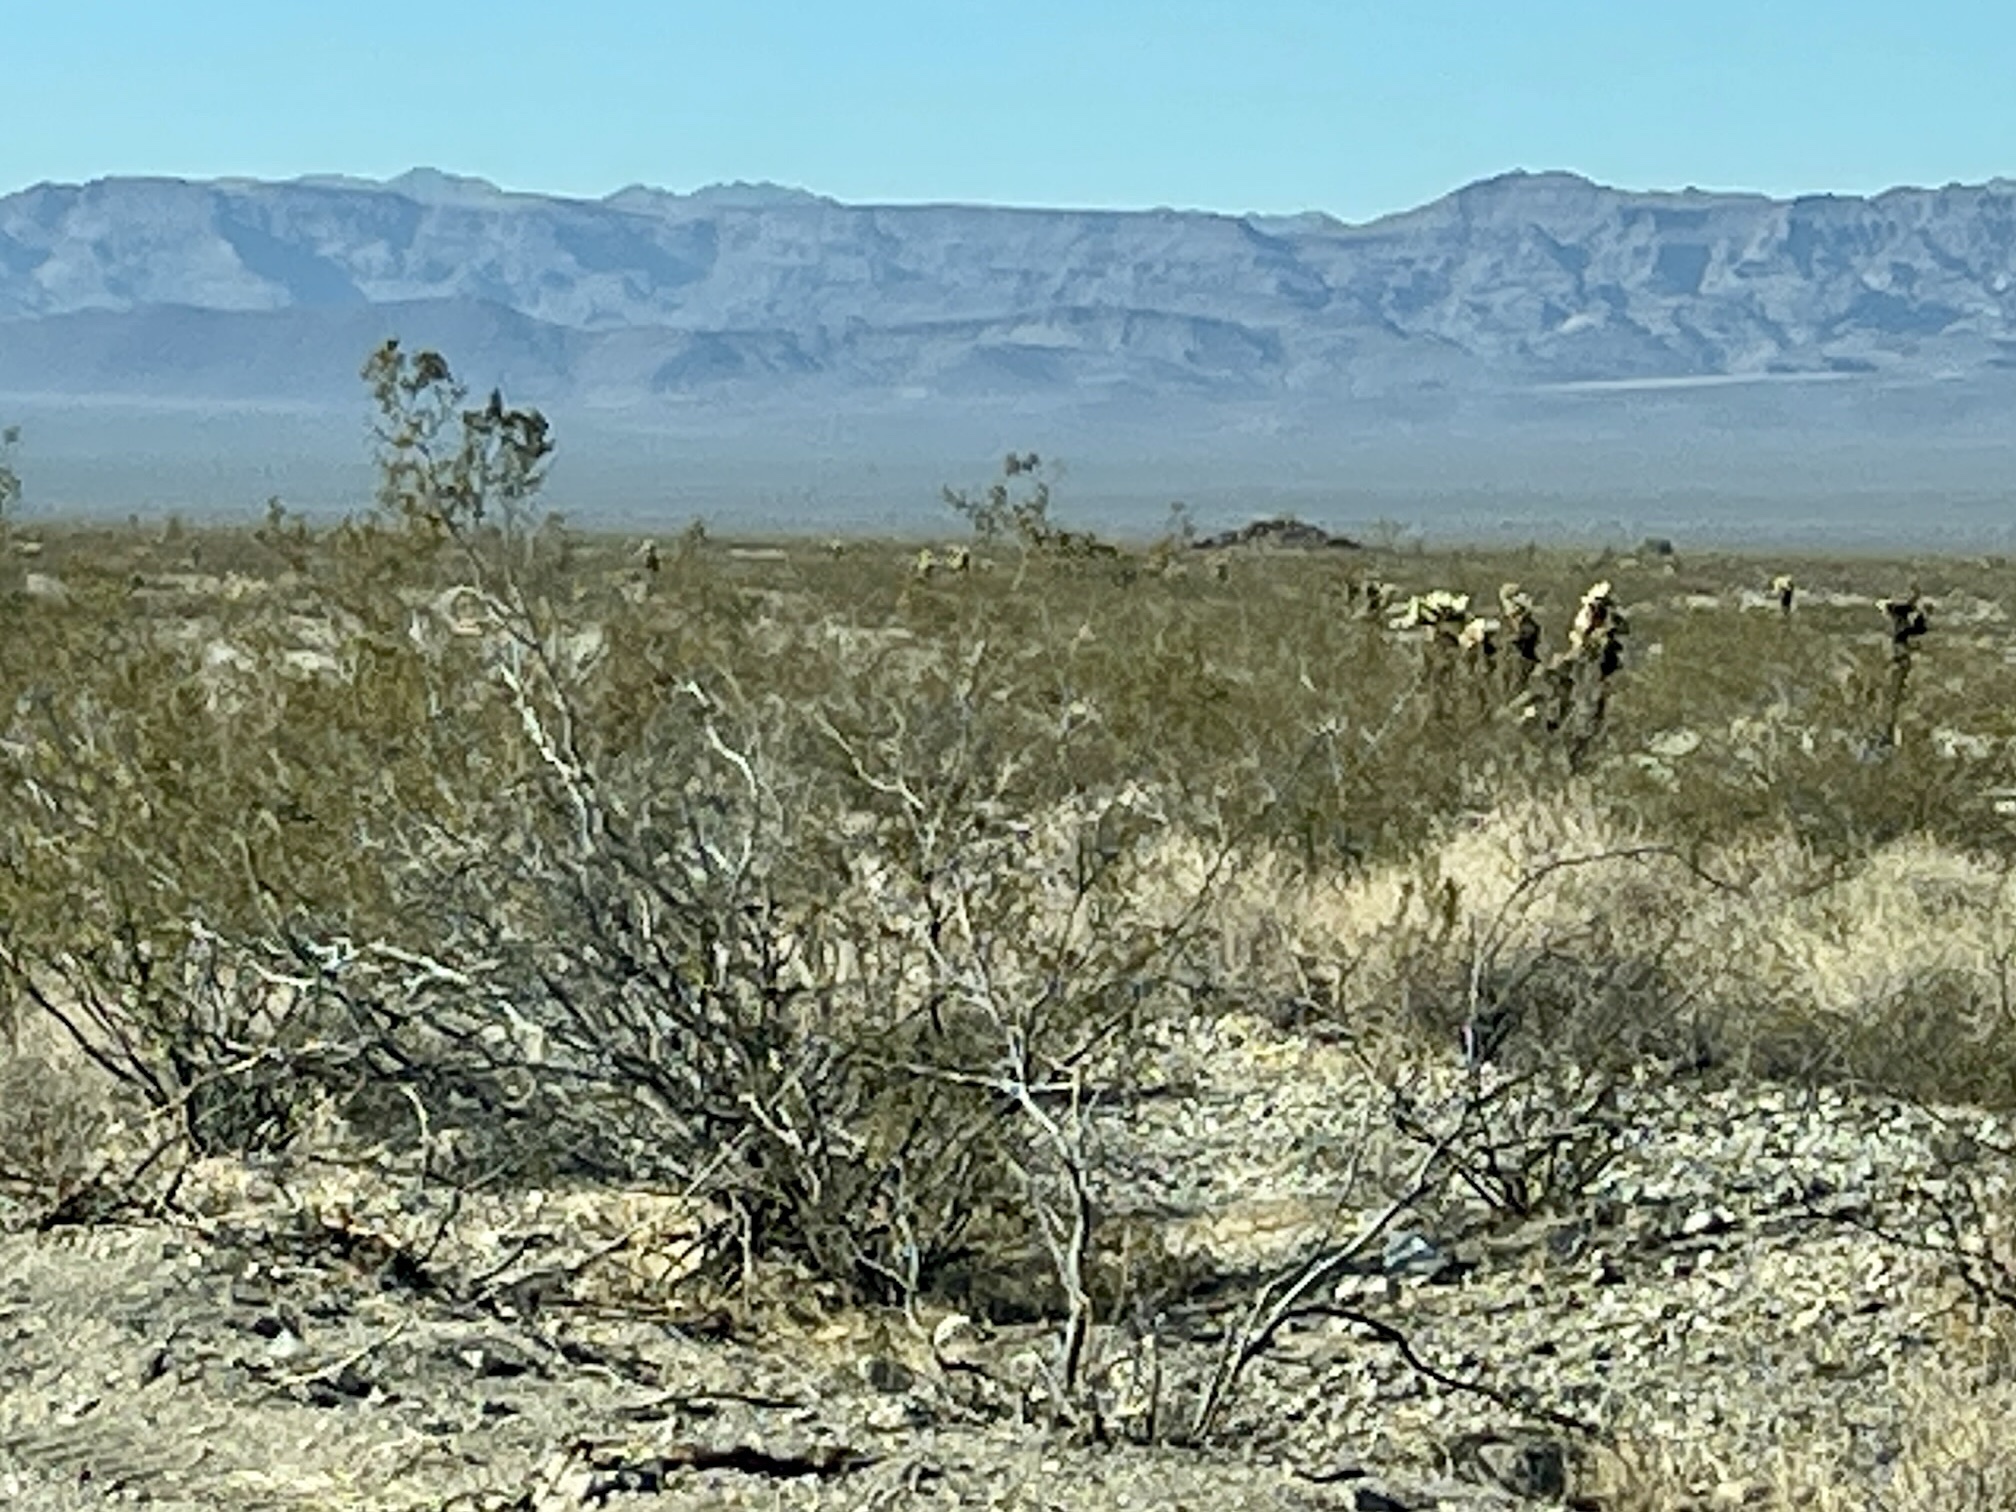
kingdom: Plantae
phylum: Tracheophyta
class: Magnoliopsida
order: Zygophyllales
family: Zygophyllaceae
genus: Larrea
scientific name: Larrea tridentata
